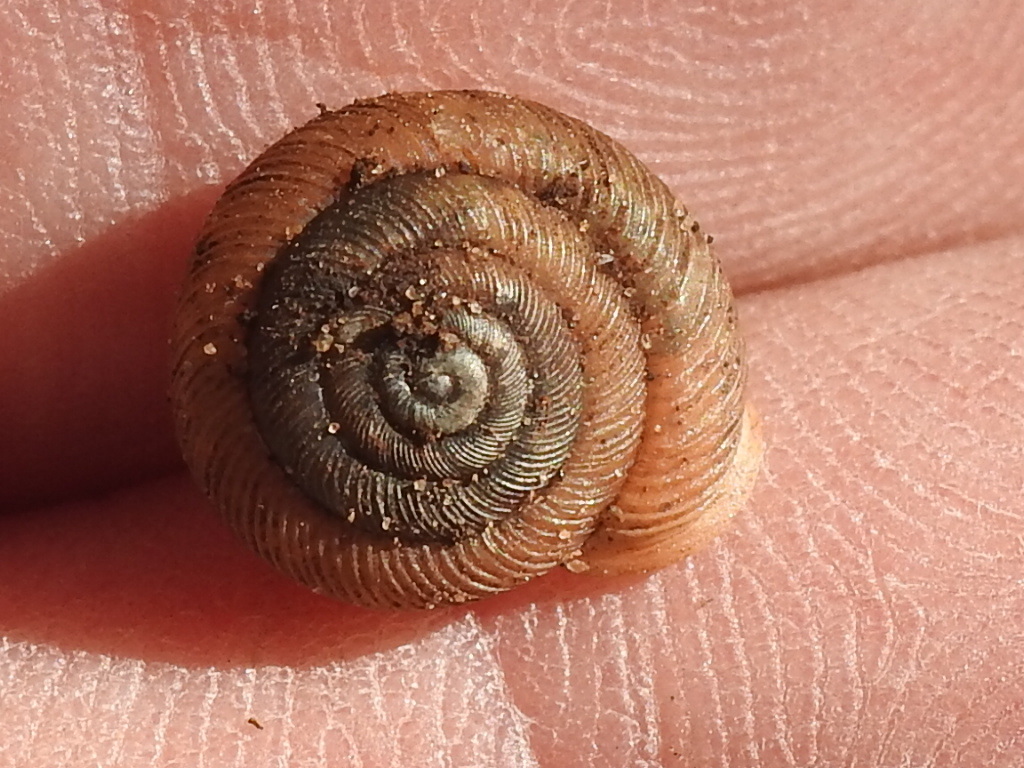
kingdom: Animalia
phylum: Mollusca
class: Gastropoda
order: Stylommatophora
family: Polygyridae
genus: Triodopsis
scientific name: Triodopsis hopetonensis
